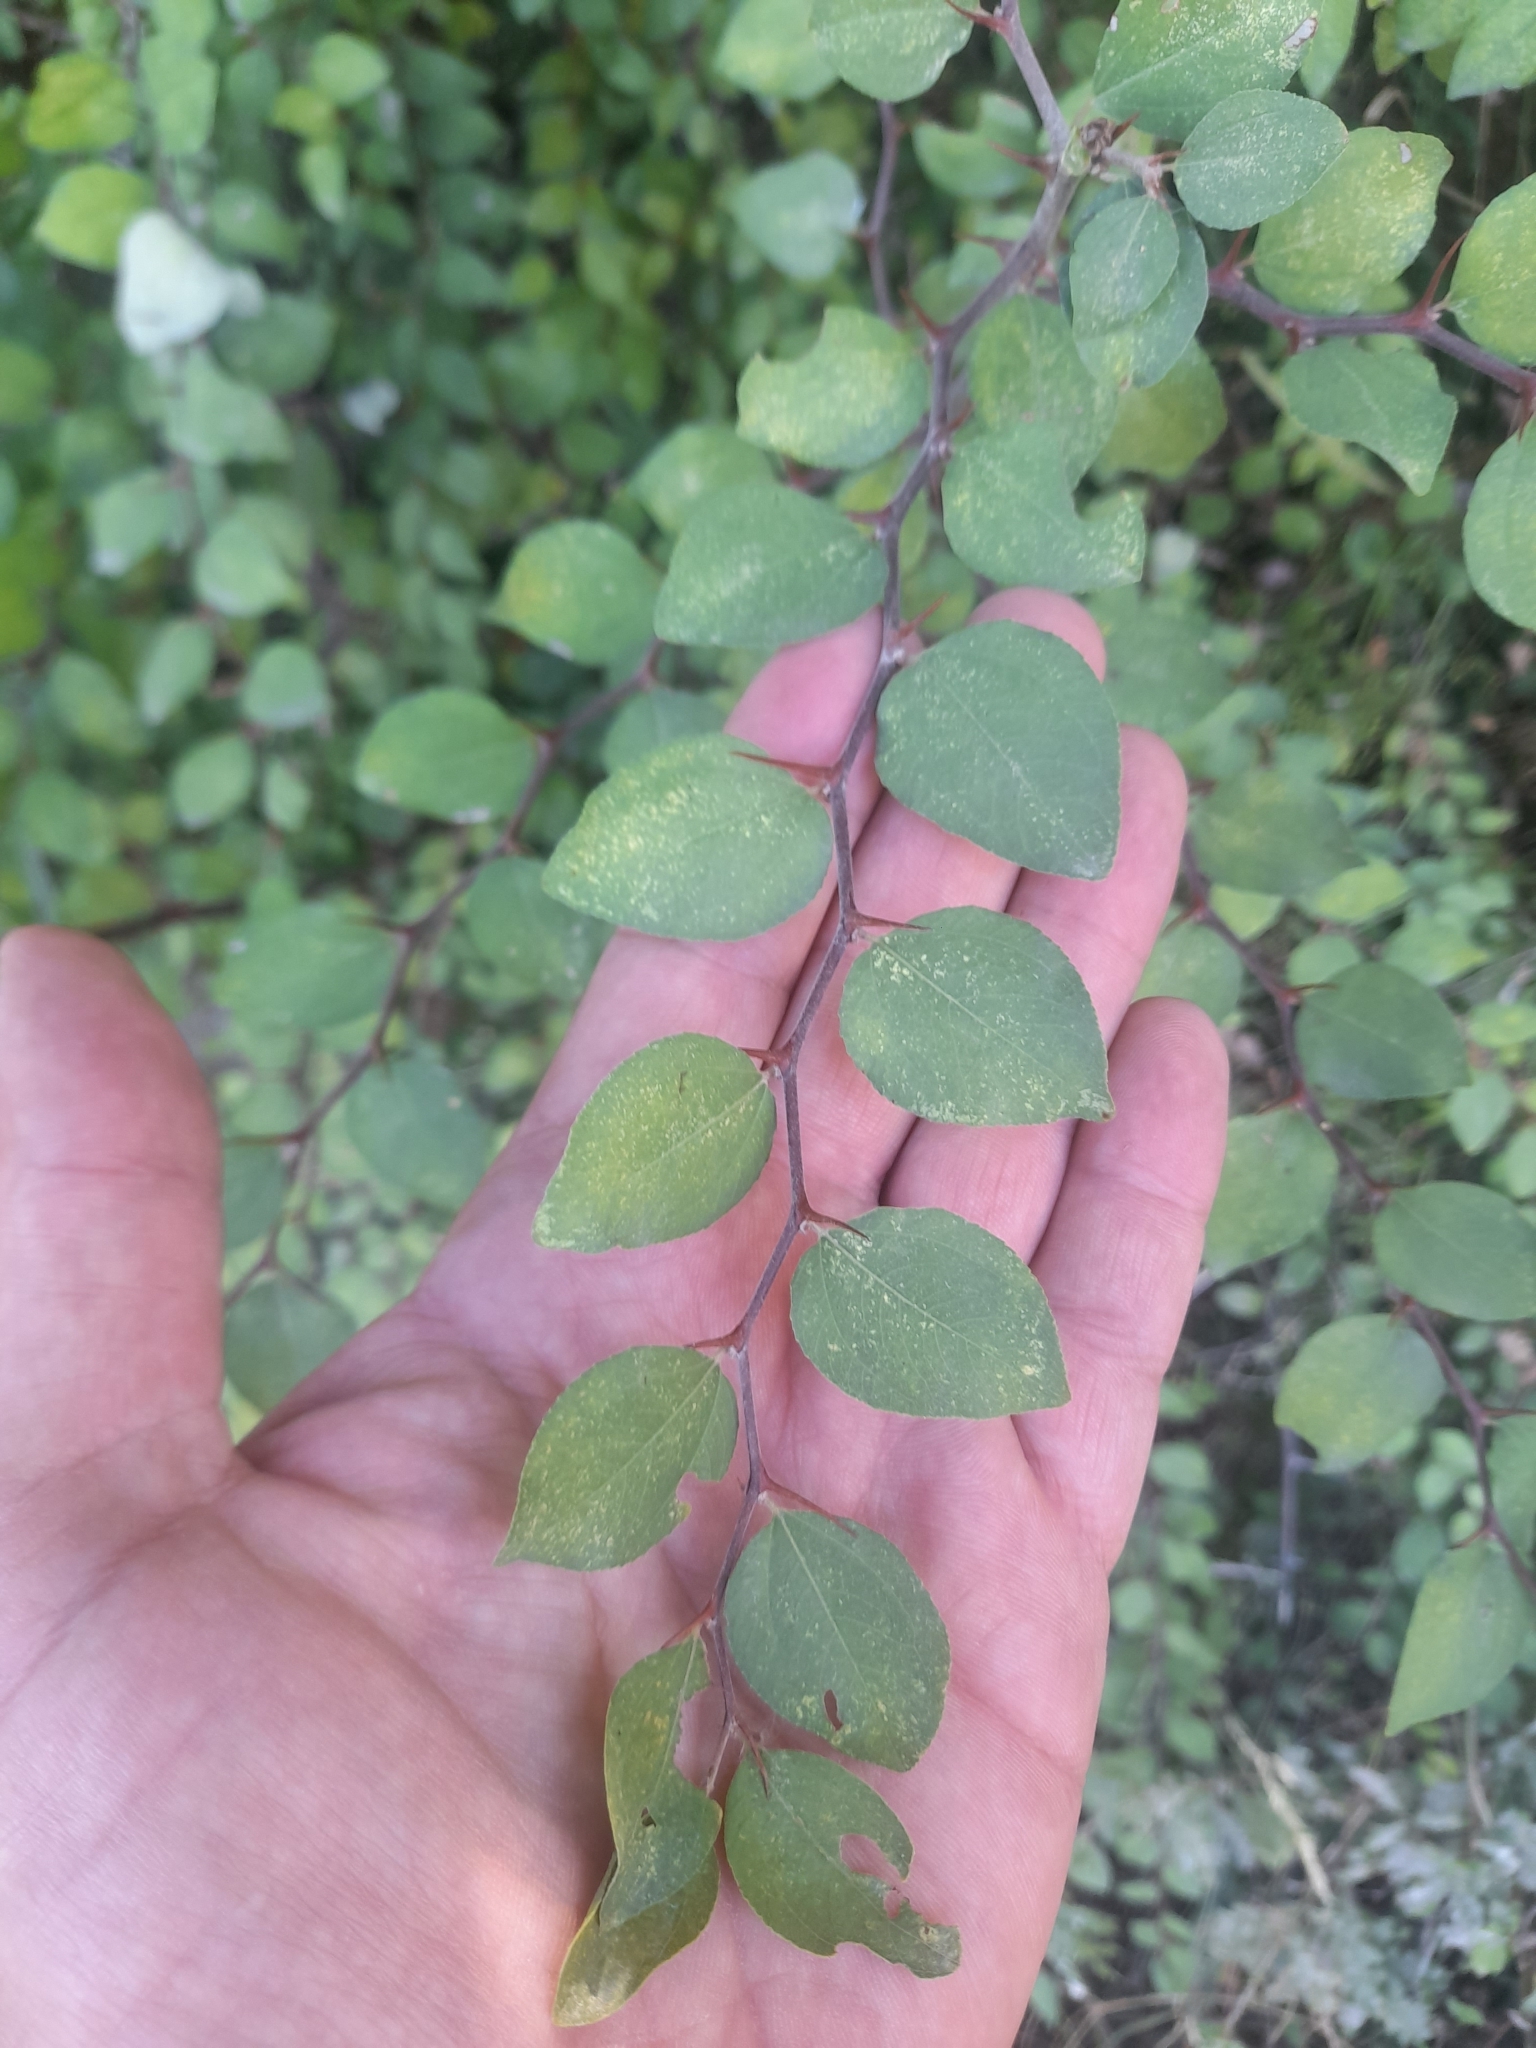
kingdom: Plantae
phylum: Tracheophyta
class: Magnoliopsida
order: Rosales
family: Rhamnaceae
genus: Paliurus
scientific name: Paliurus spina-christi
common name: Jeruselem thorn
